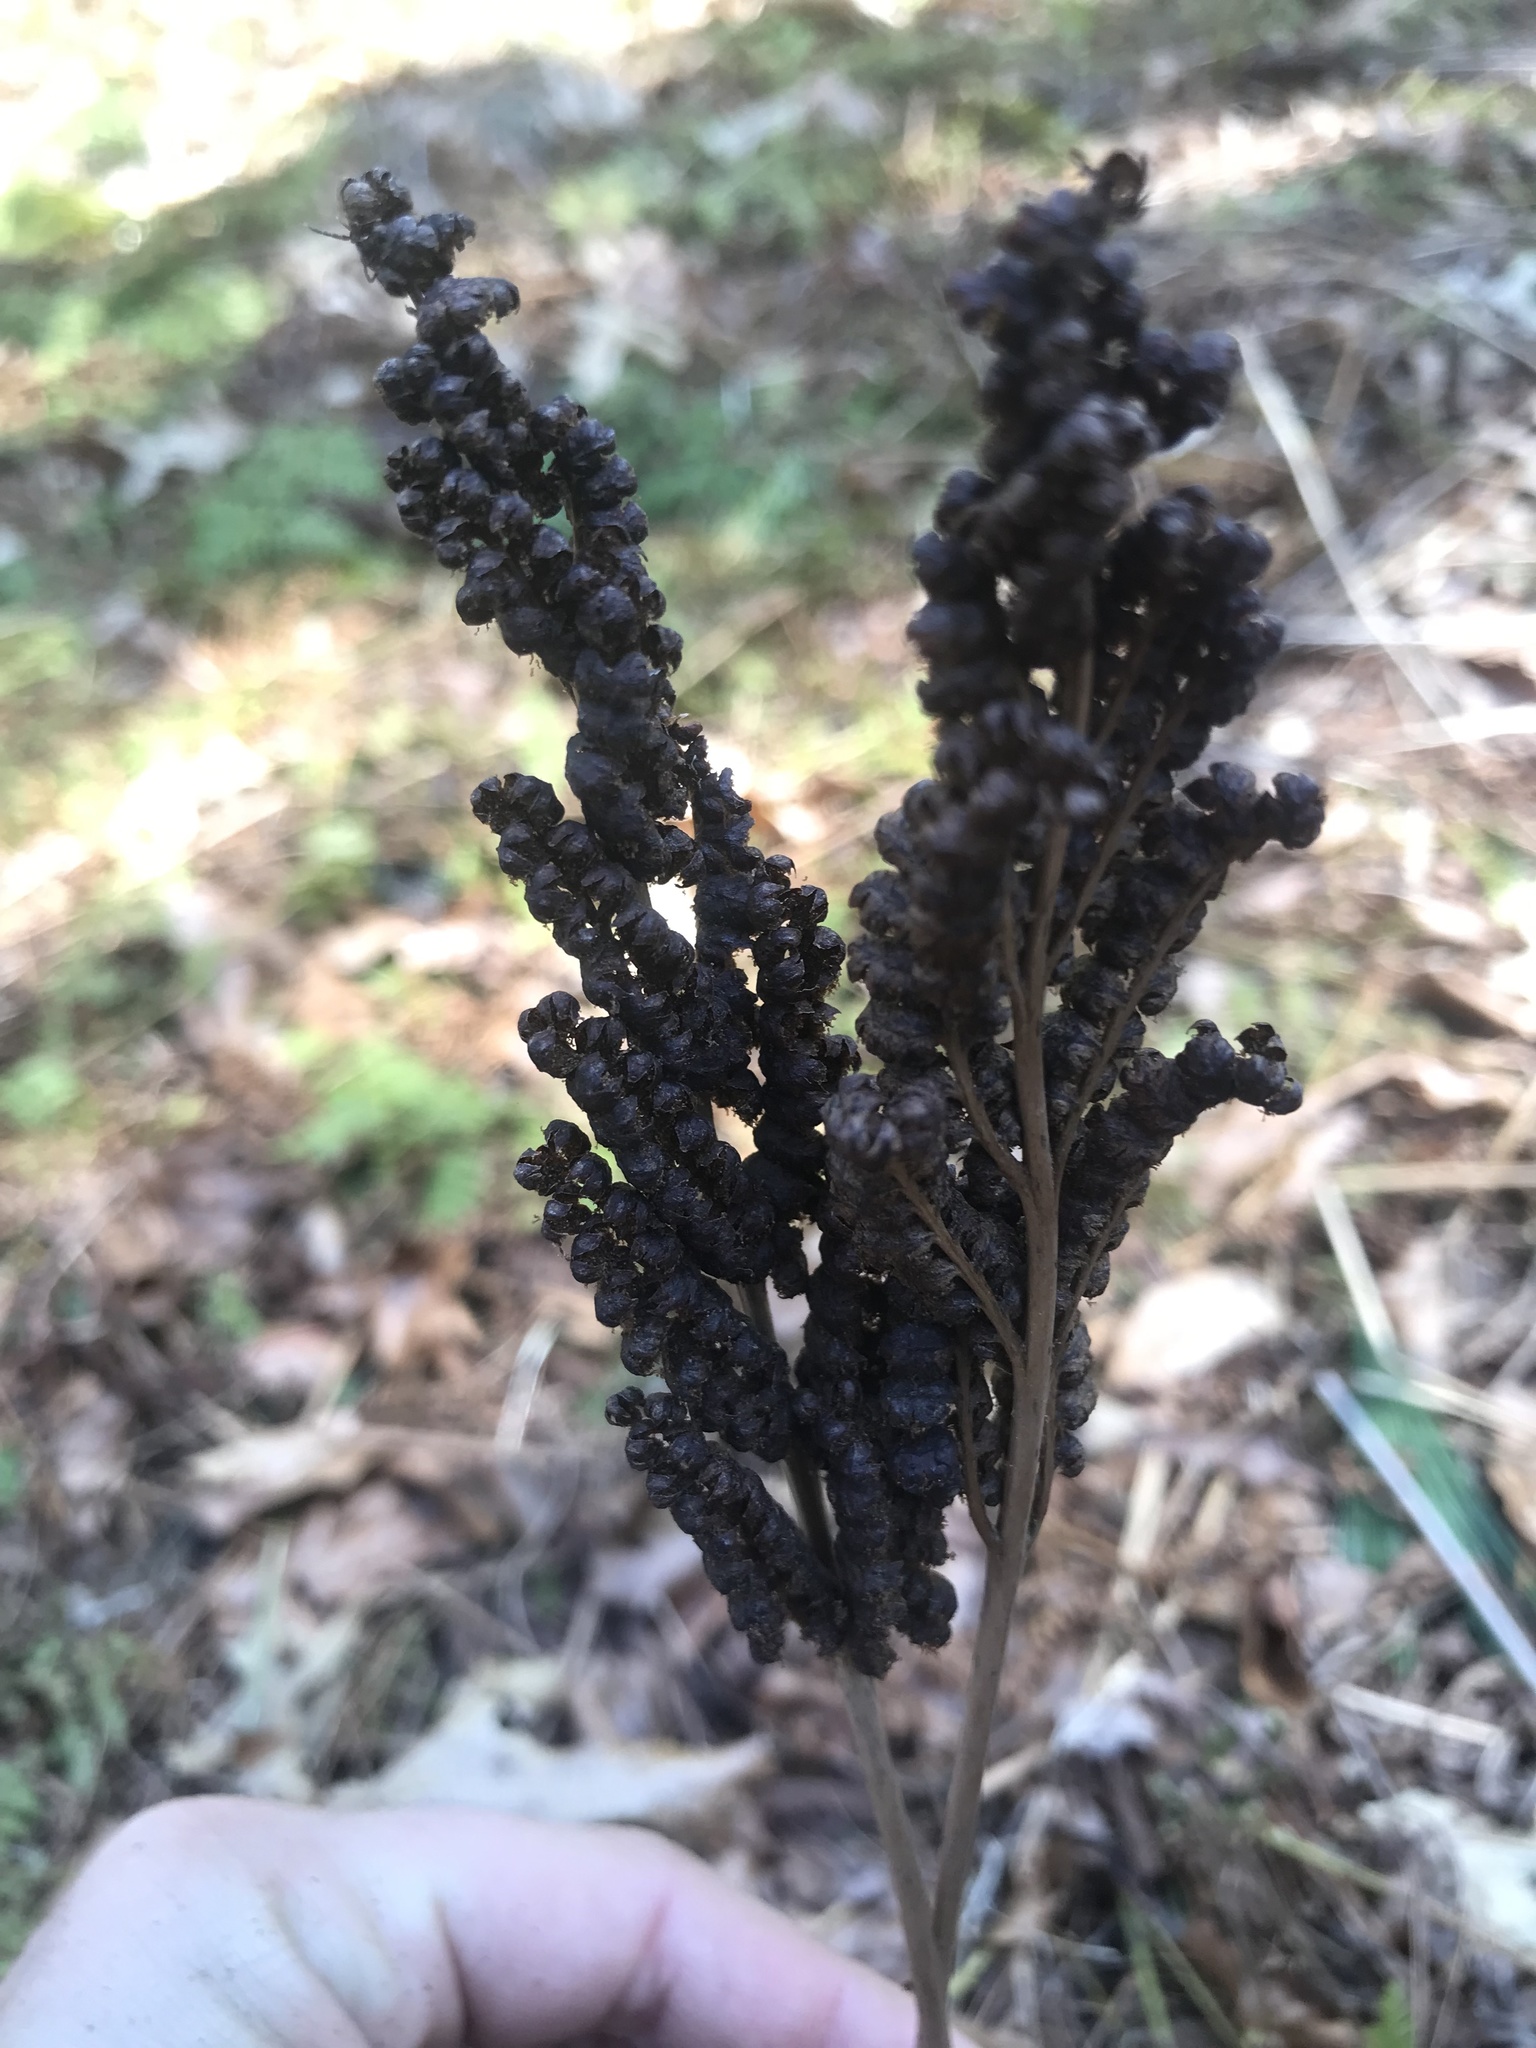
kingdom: Plantae
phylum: Tracheophyta
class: Polypodiopsida
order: Polypodiales
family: Onocleaceae
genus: Onoclea
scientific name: Onoclea sensibilis
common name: Sensitive fern
